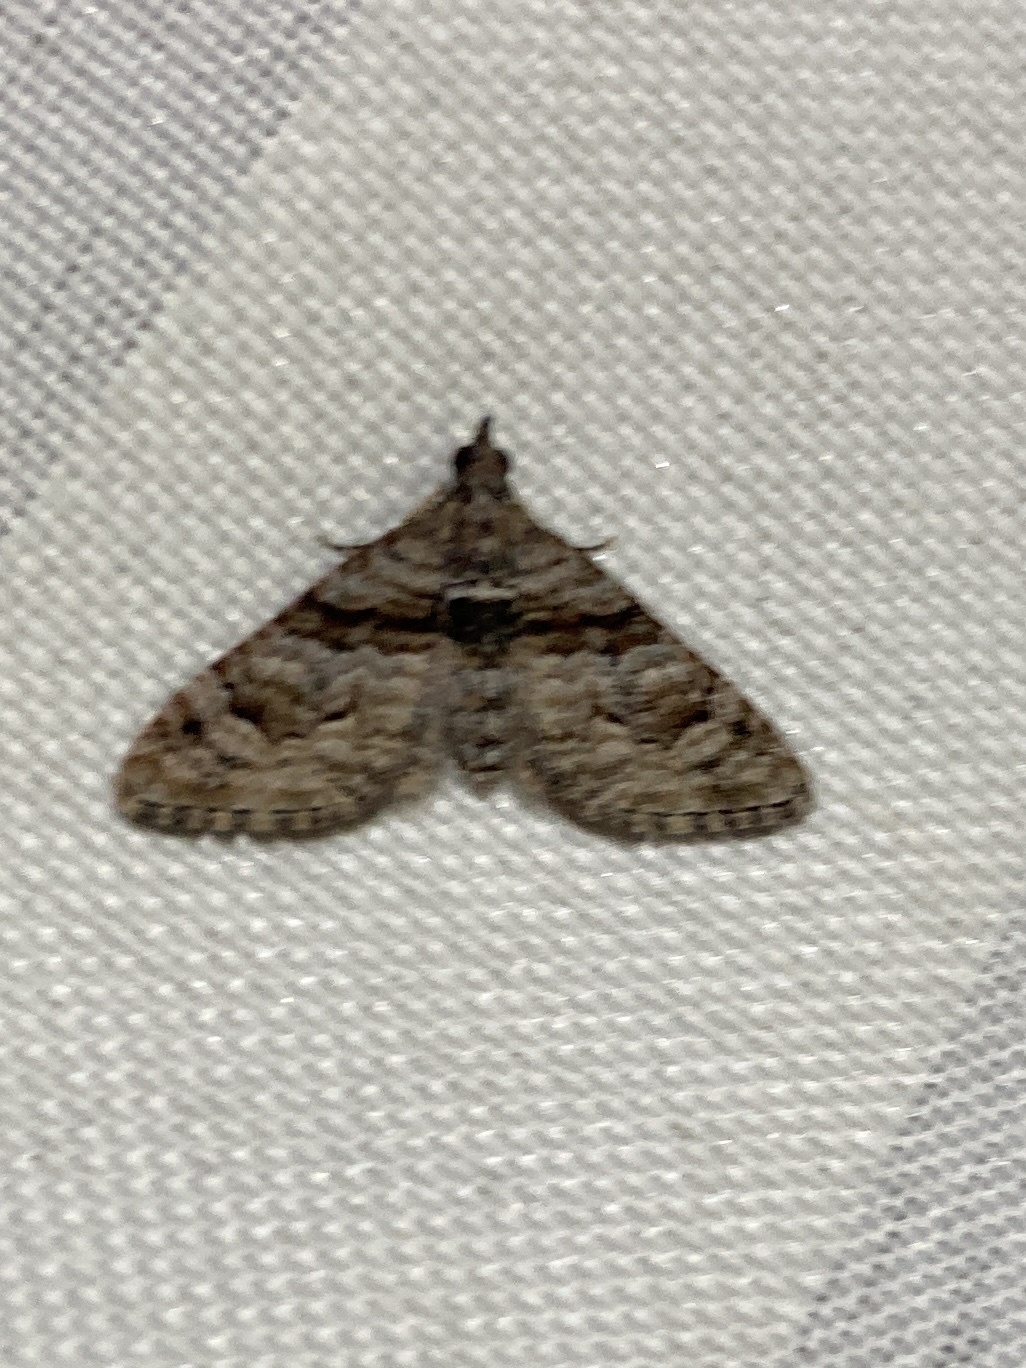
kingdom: Animalia
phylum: Arthropoda
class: Insecta
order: Lepidoptera
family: Geometridae
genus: Phrissogonus
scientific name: Phrissogonus laticostata
